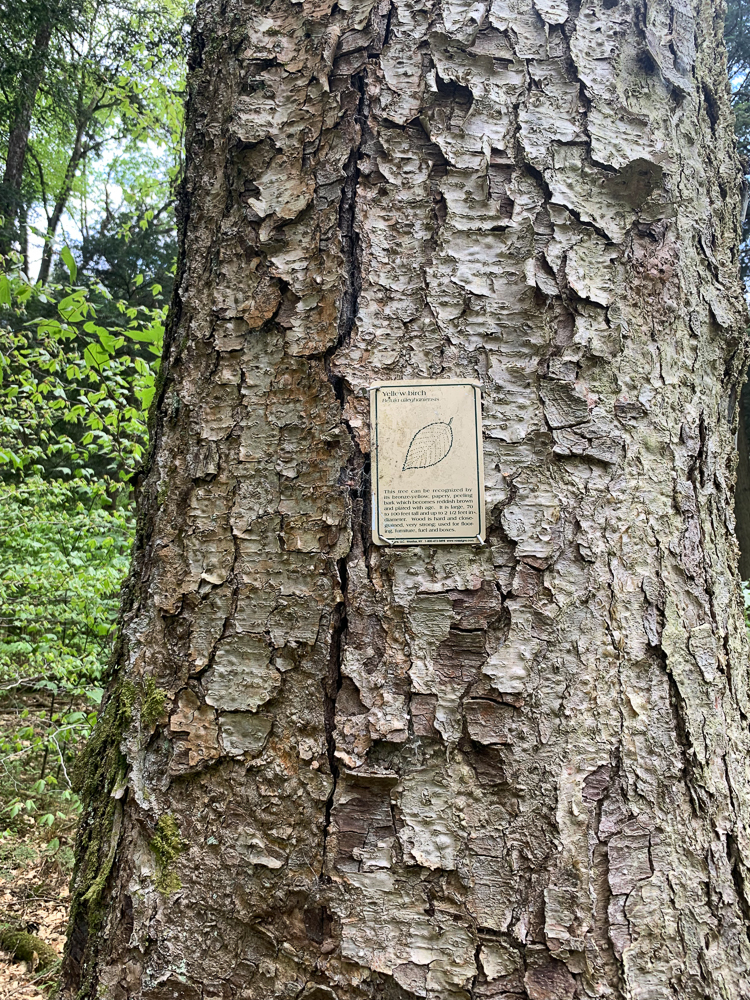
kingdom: Plantae
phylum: Tracheophyta
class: Magnoliopsida
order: Fagales
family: Betulaceae
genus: Betula
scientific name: Betula alleghaniensis
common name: Yellow birch
